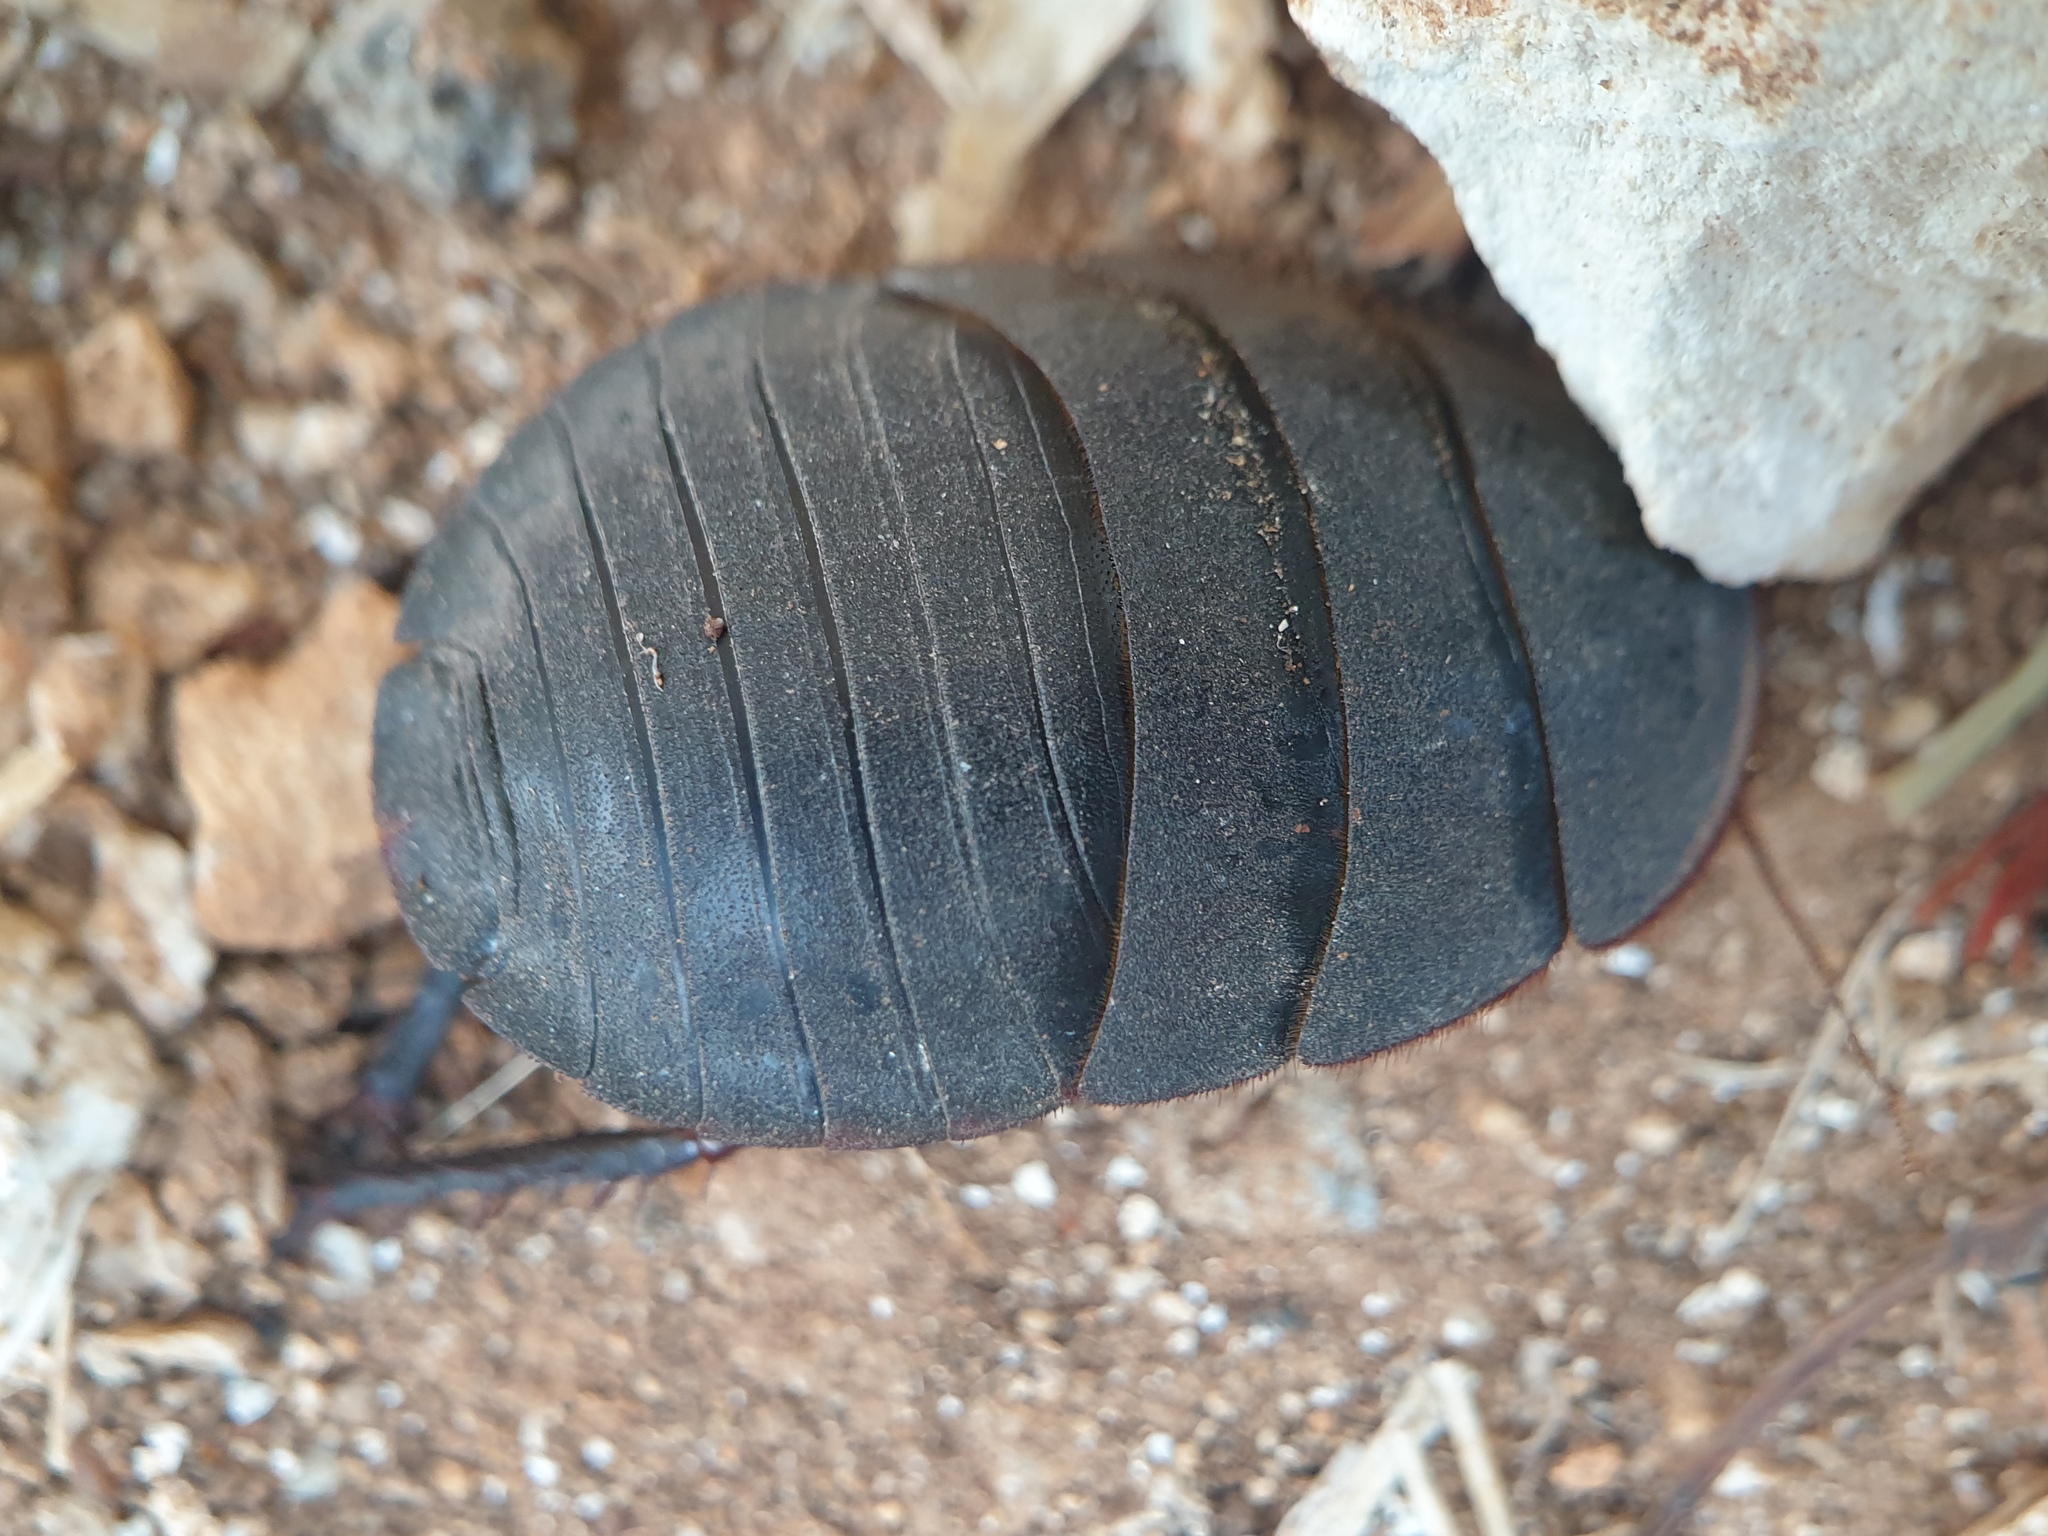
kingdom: Animalia
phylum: Arthropoda
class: Insecta
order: Blattodea
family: Corydiidae
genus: Polyphaga
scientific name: Polyphaga aegyptiaca
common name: Egyptian cockroach
